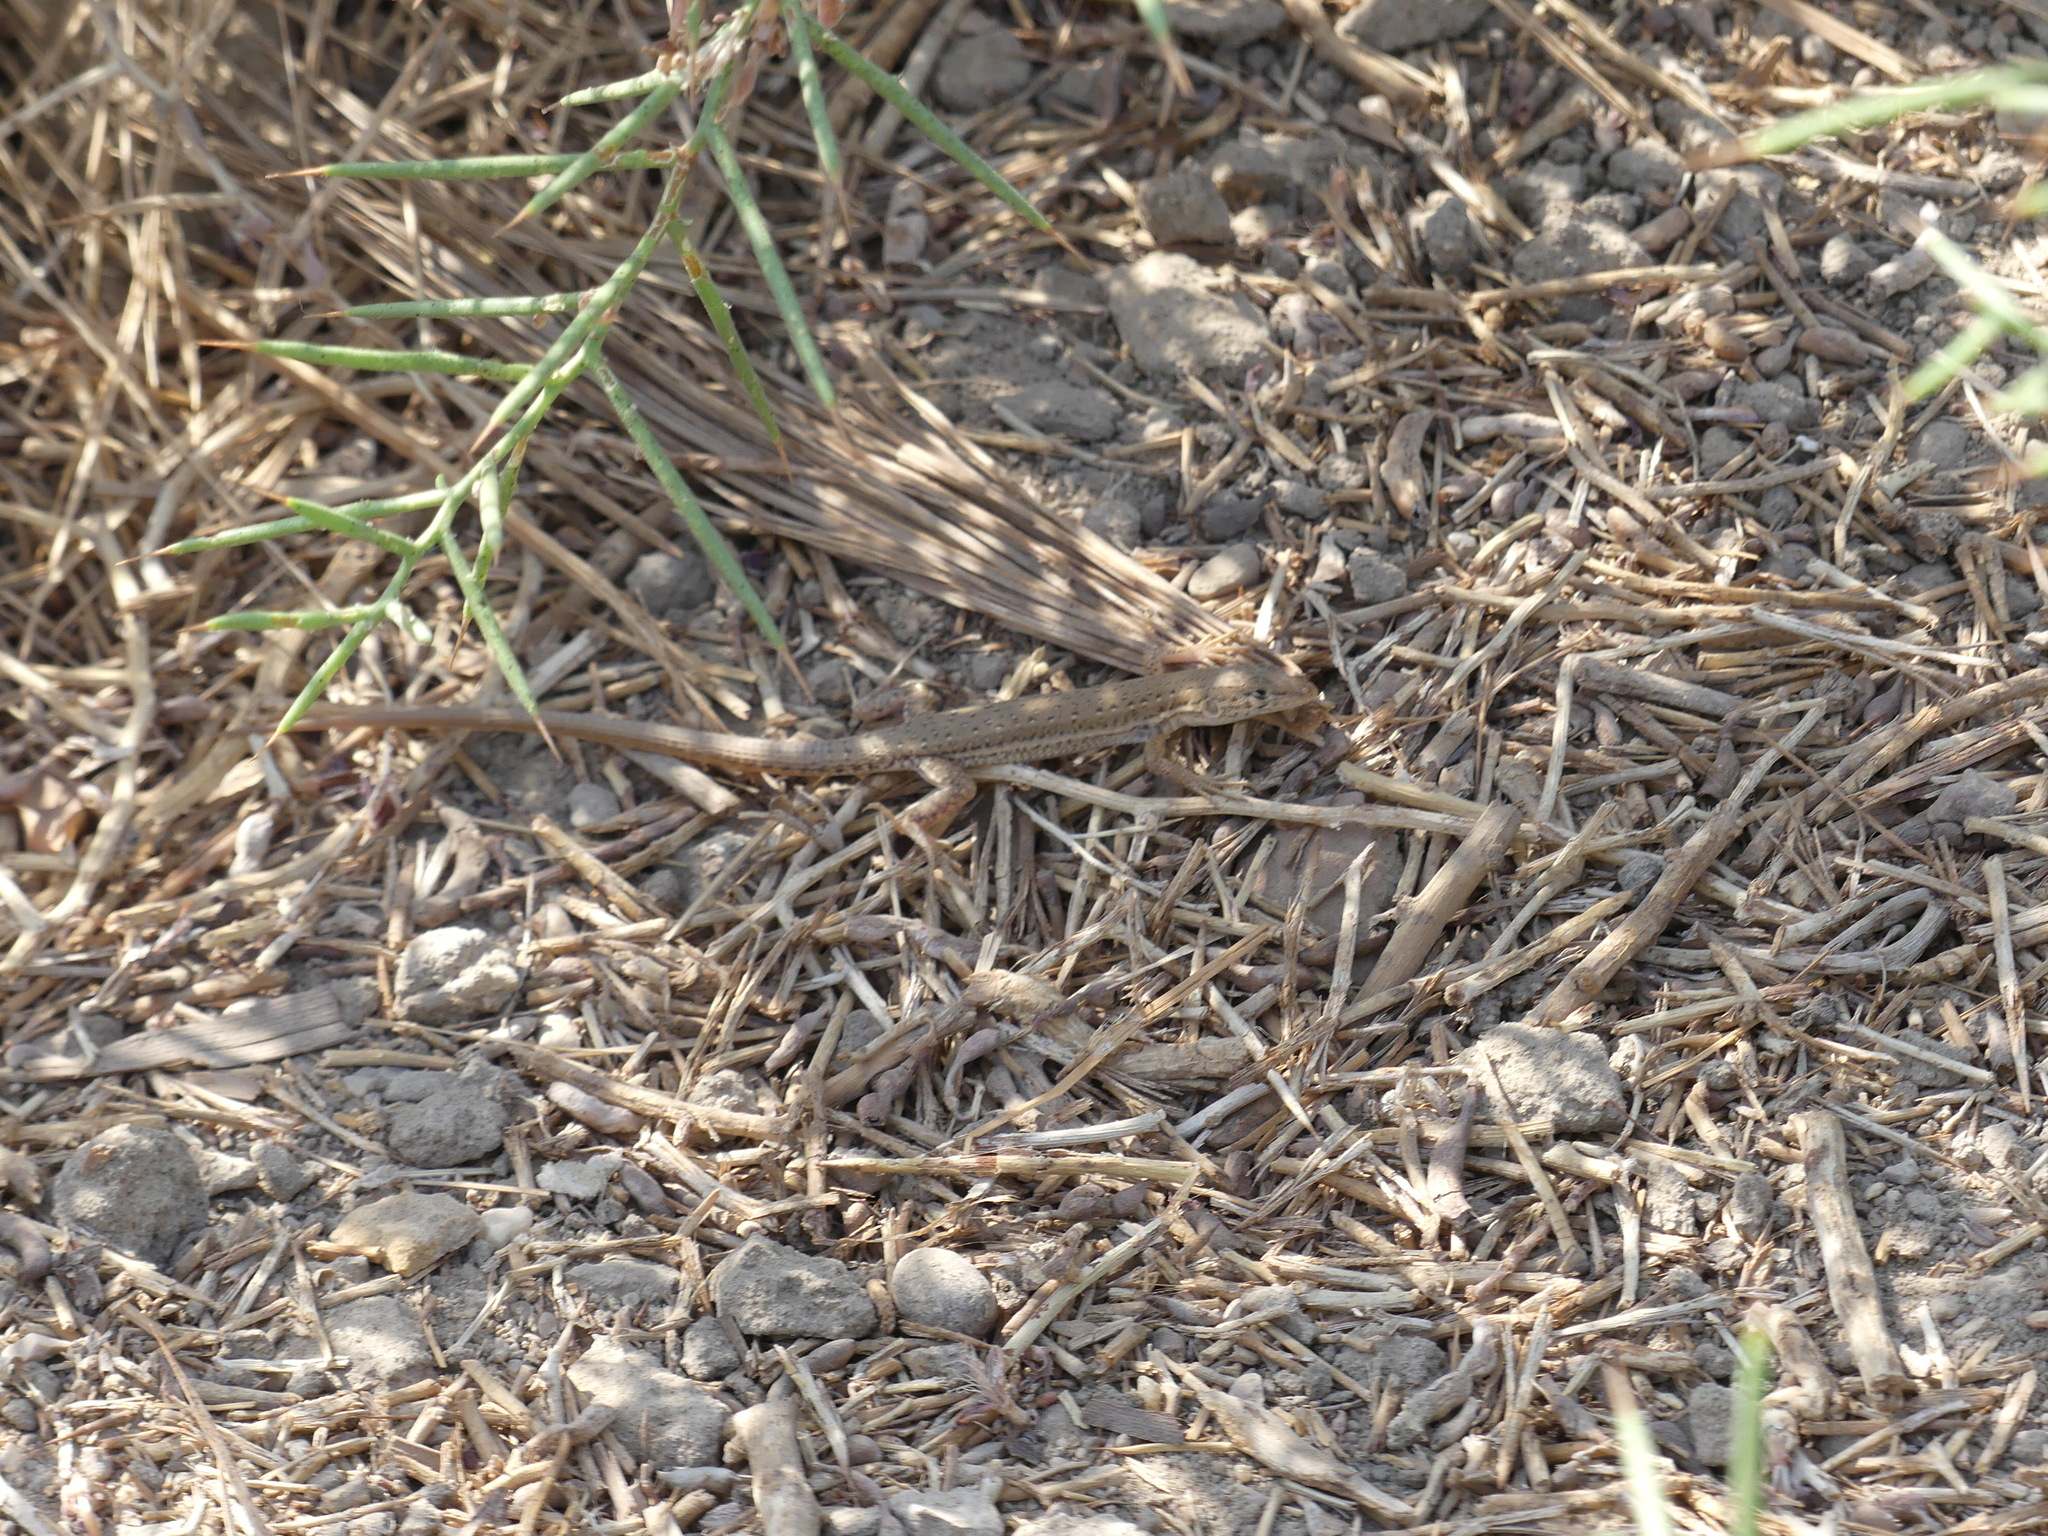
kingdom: Animalia
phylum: Chordata
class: Squamata
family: Lacertidae
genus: Mesalina
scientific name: Mesalina guttulata
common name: Desert lacerta
